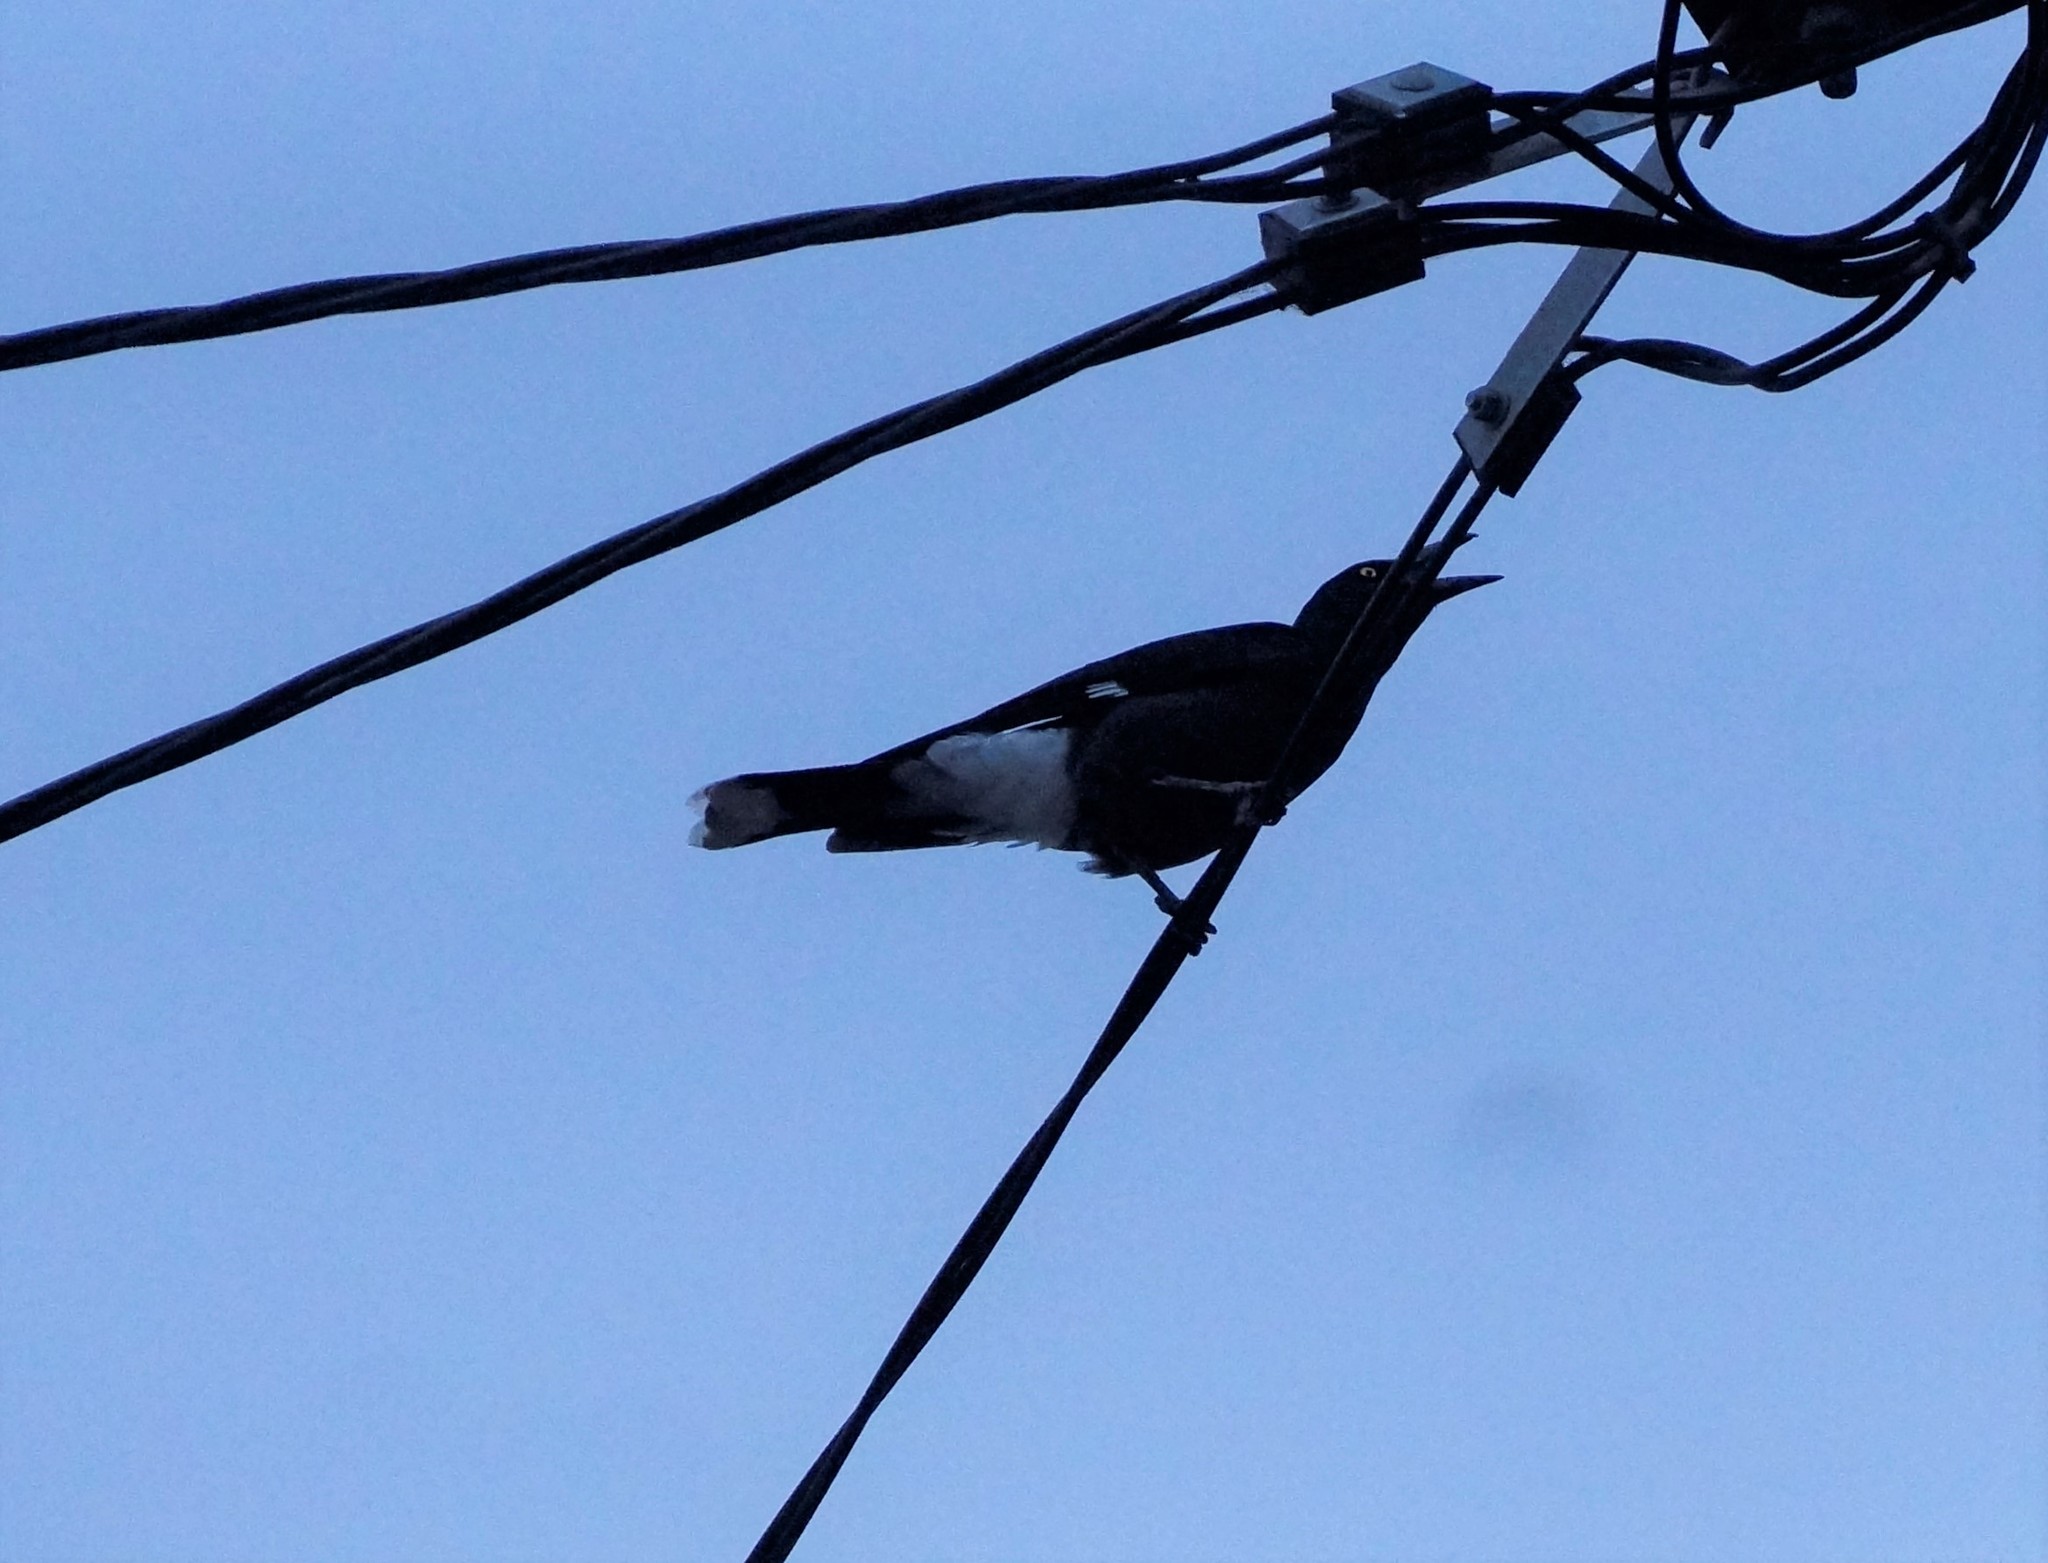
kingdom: Animalia
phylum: Chordata
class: Aves
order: Passeriformes
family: Cracticidae
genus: Strepera
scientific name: Strepera graculina
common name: Pied currawong
